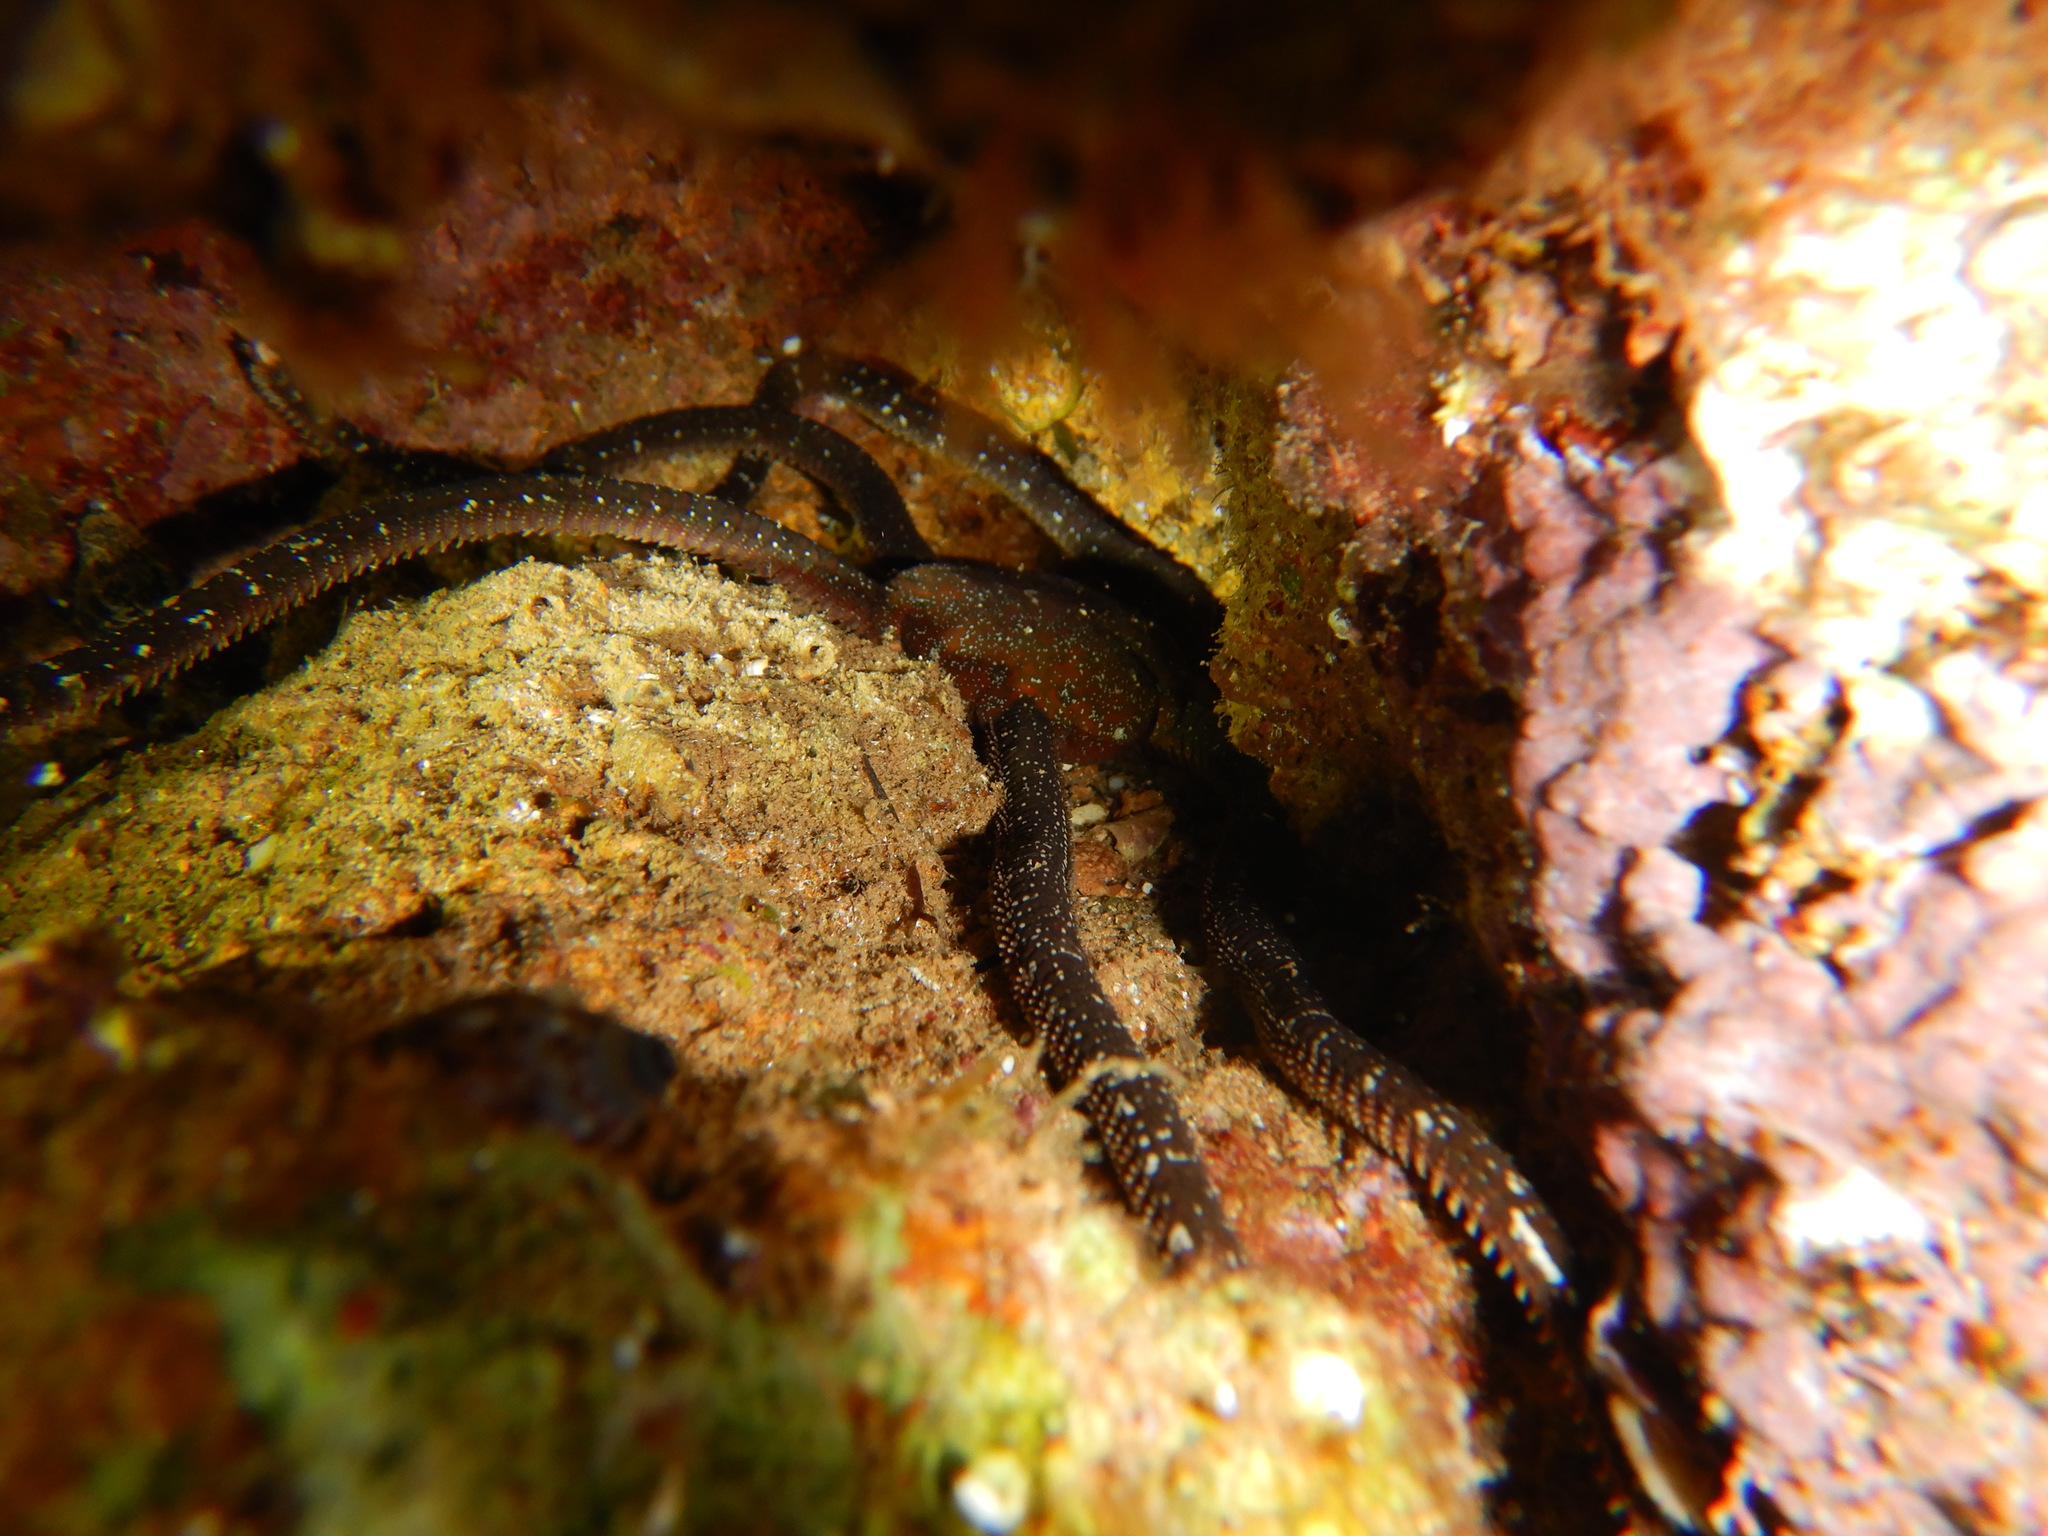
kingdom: Animalia
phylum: Echinodermata
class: Ophiuroidea
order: Ophiacanthida
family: Ophiodermatidae
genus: Ophioderma
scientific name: Ophioderma longicaudum
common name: Smooth brittle-star
